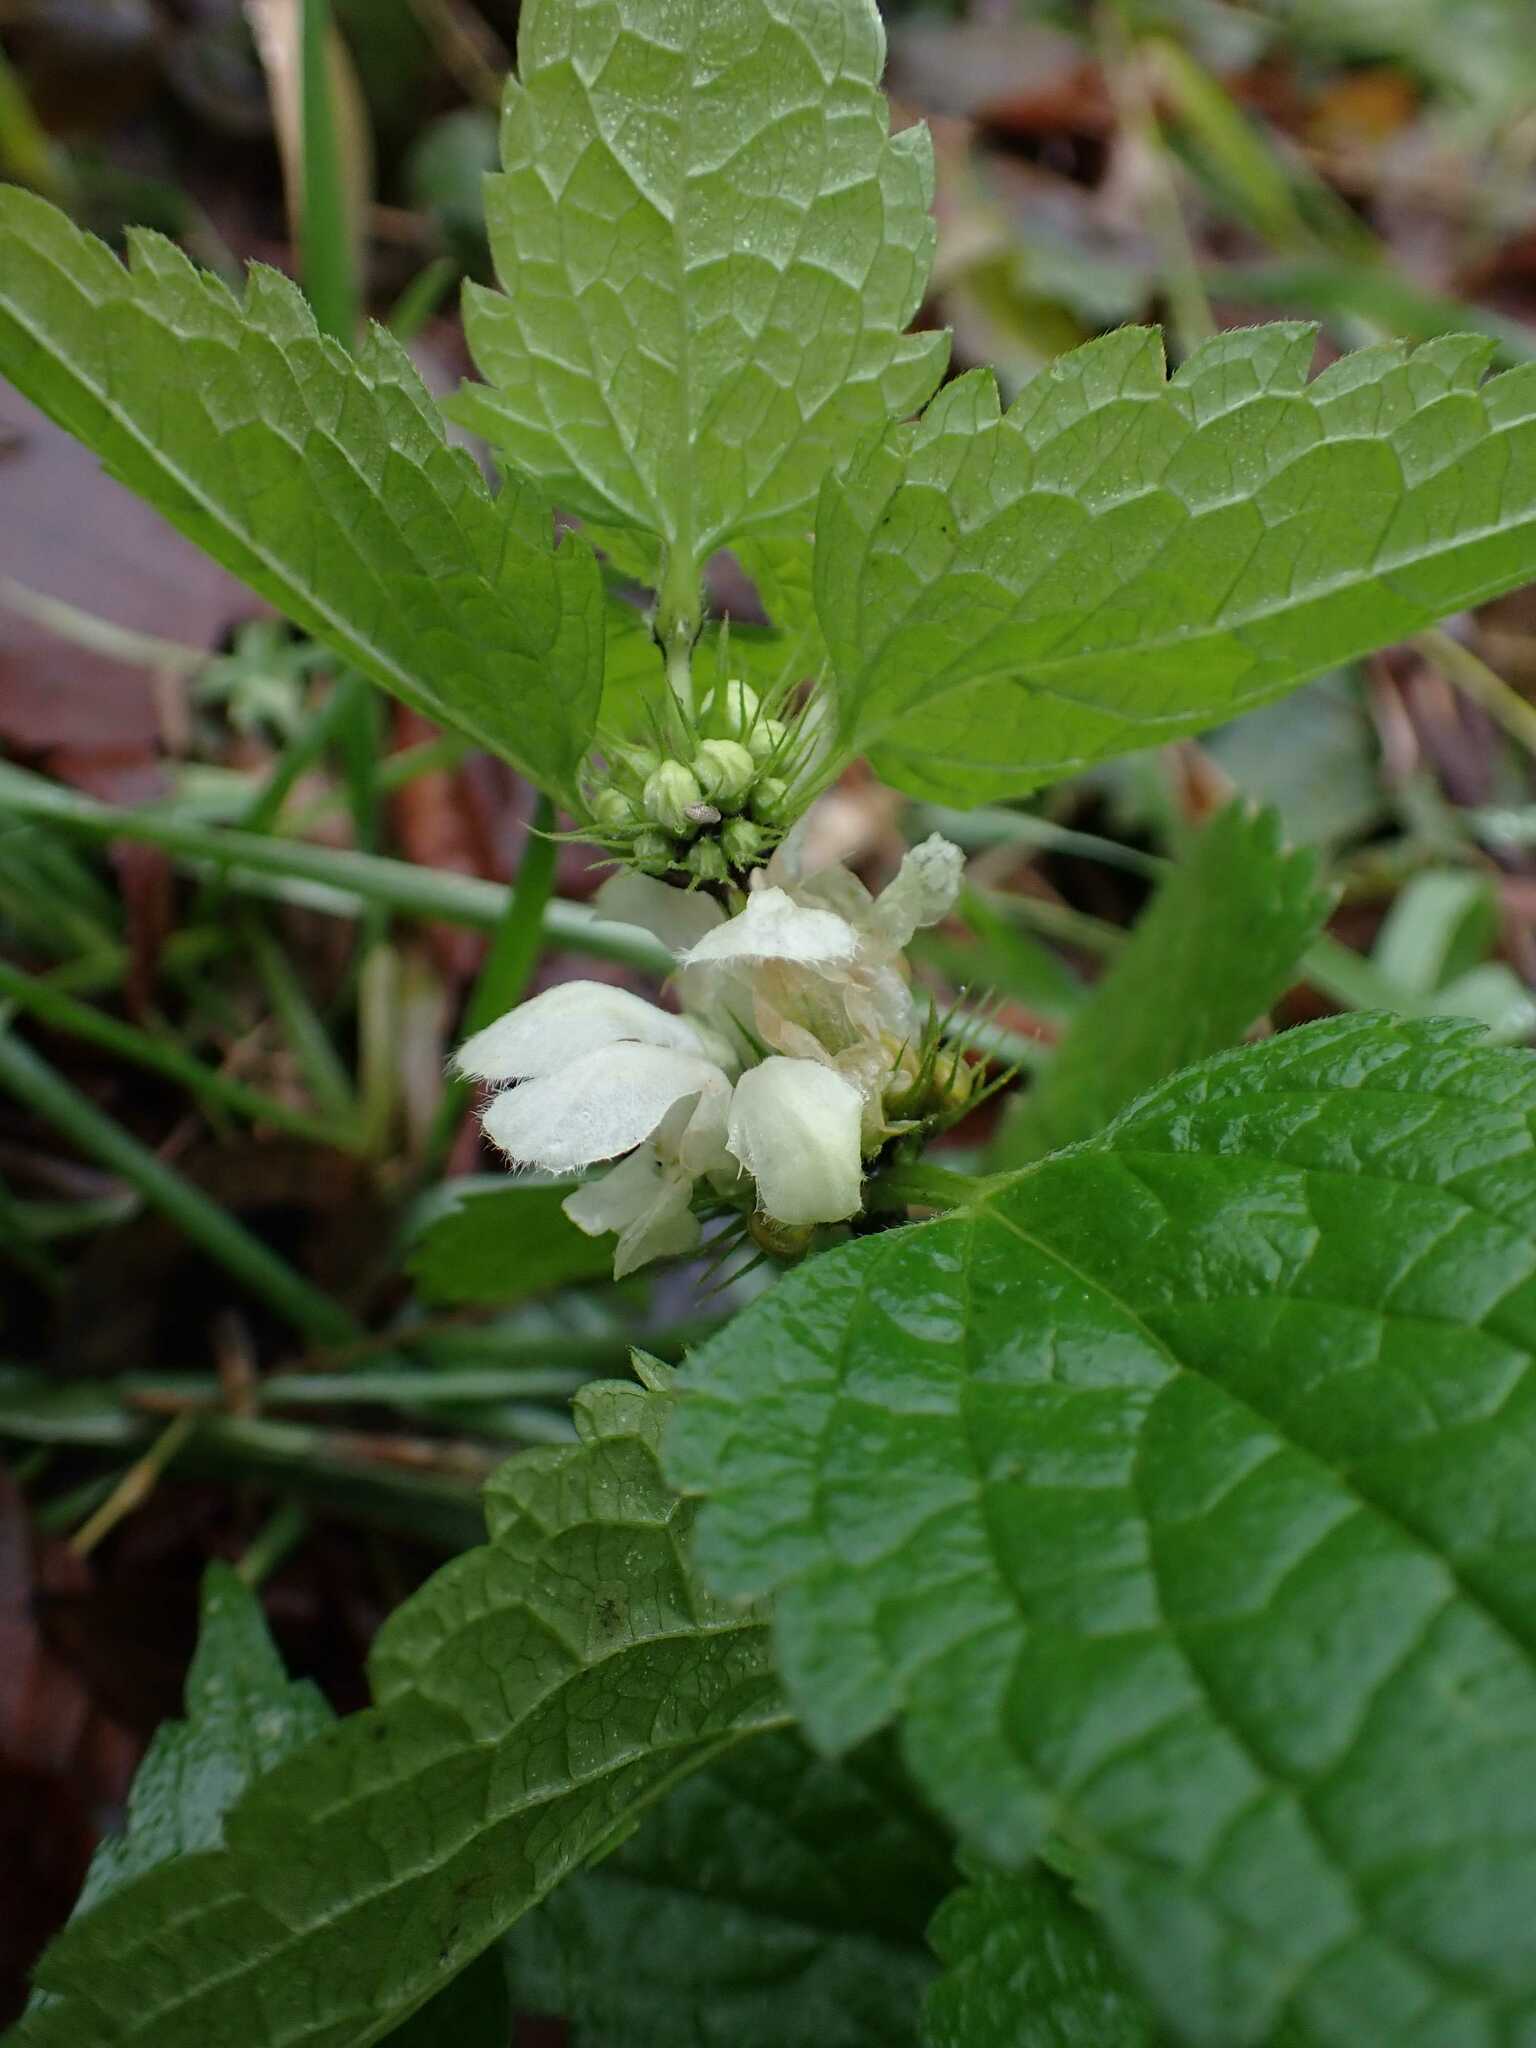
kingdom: Plantae
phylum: Tracheophyta
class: Magnoliopsida
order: Lamiales
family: Lamiaceae
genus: Lamium
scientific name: Lamium album
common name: White dead-nettle
